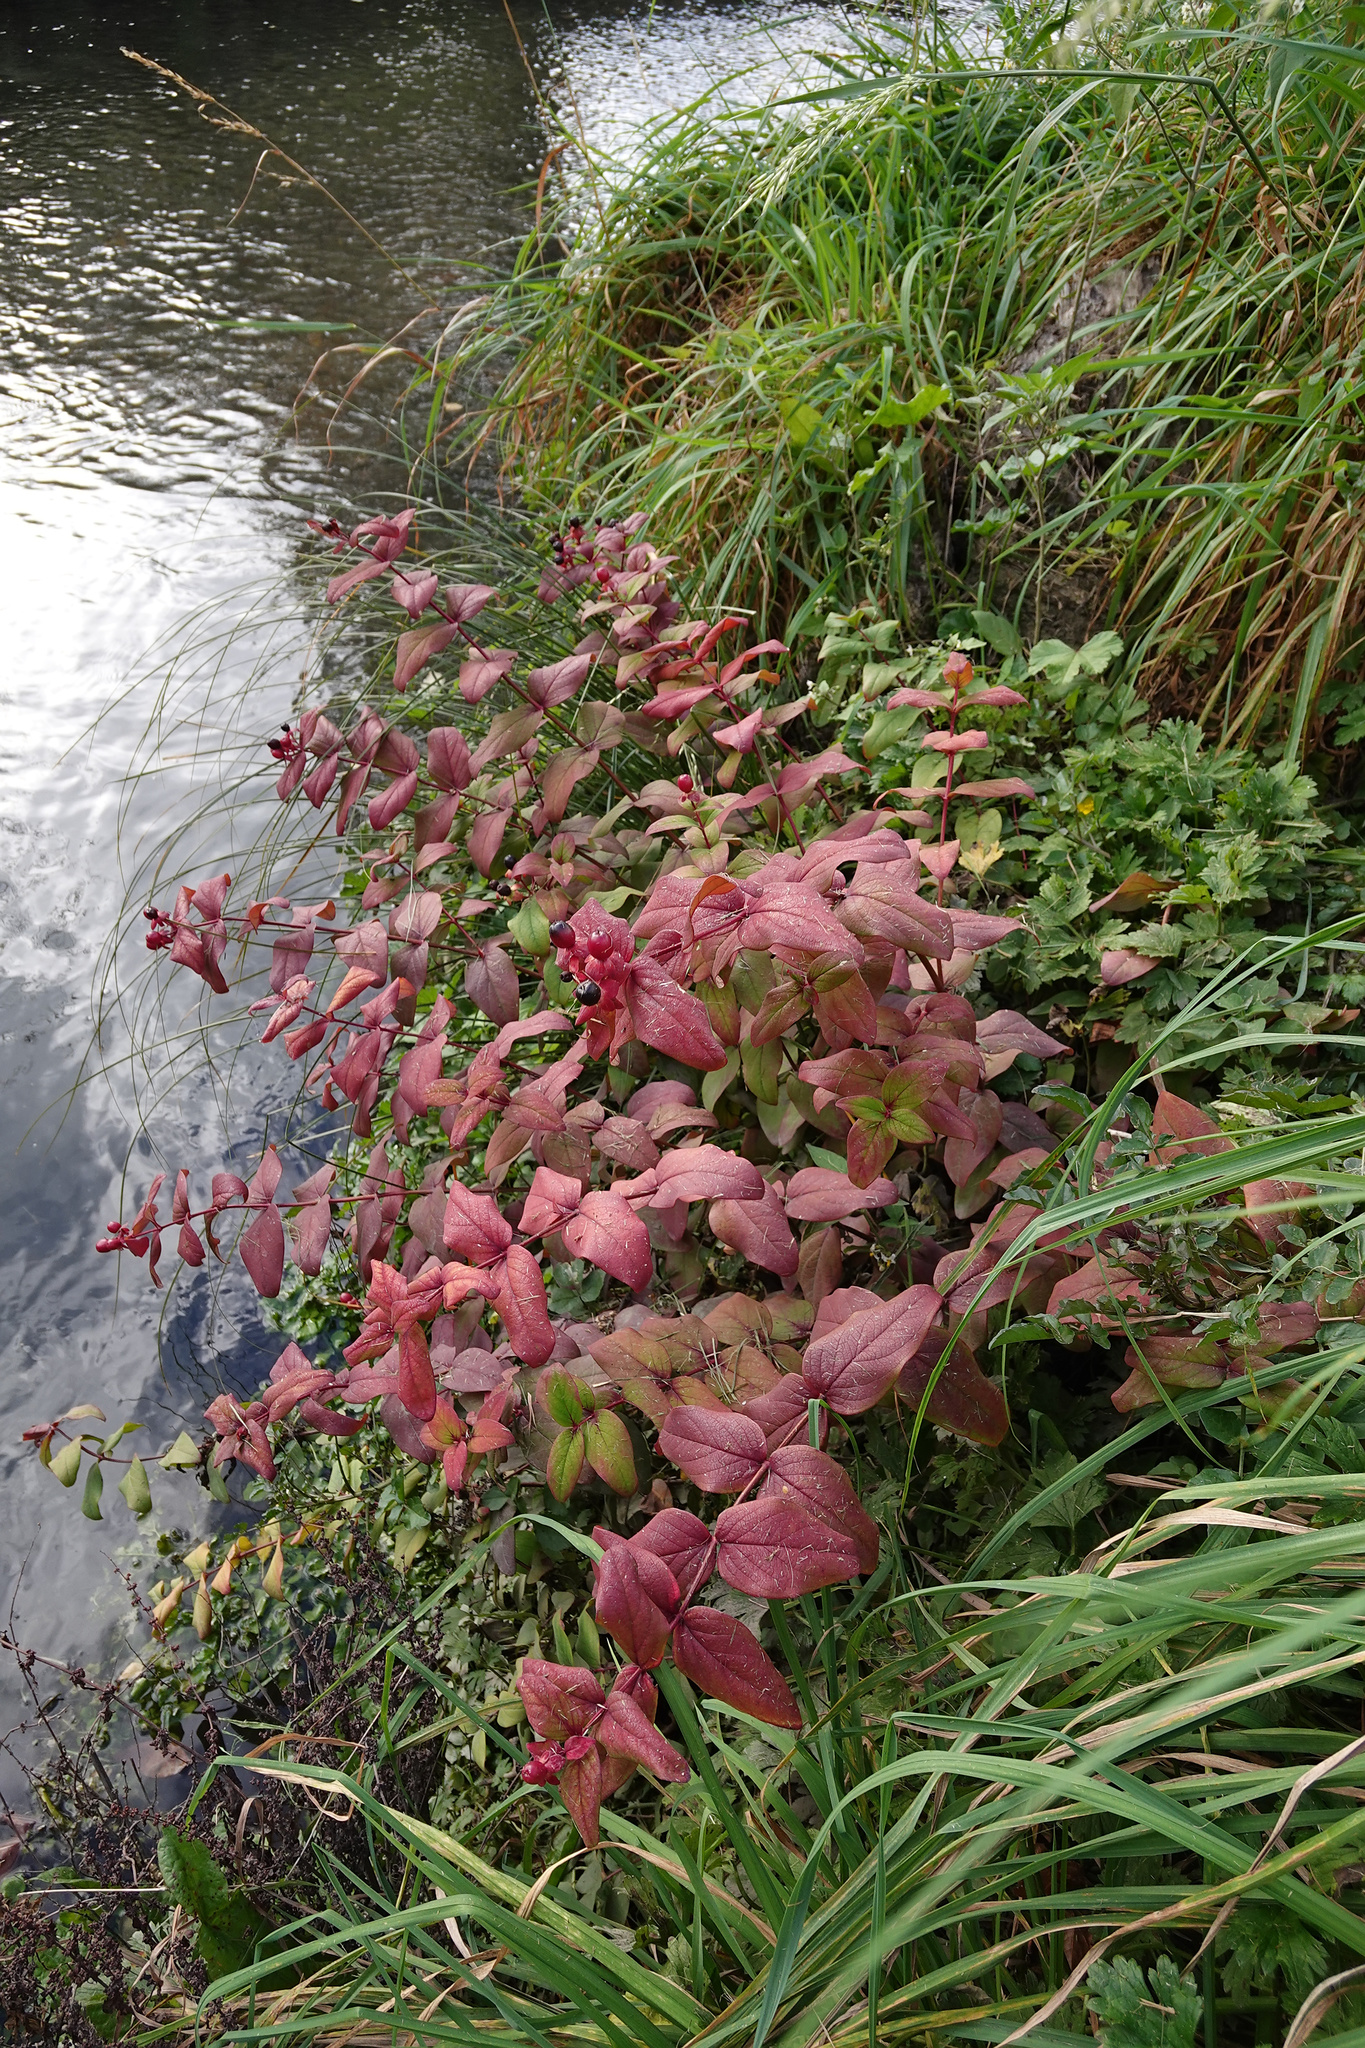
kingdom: Plantae
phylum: Tracheophyta
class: Magnoliopsida
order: Malpighiales
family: Hypericaceae
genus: Hypericum
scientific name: Hypericum androsaemum
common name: Sweet-amber
